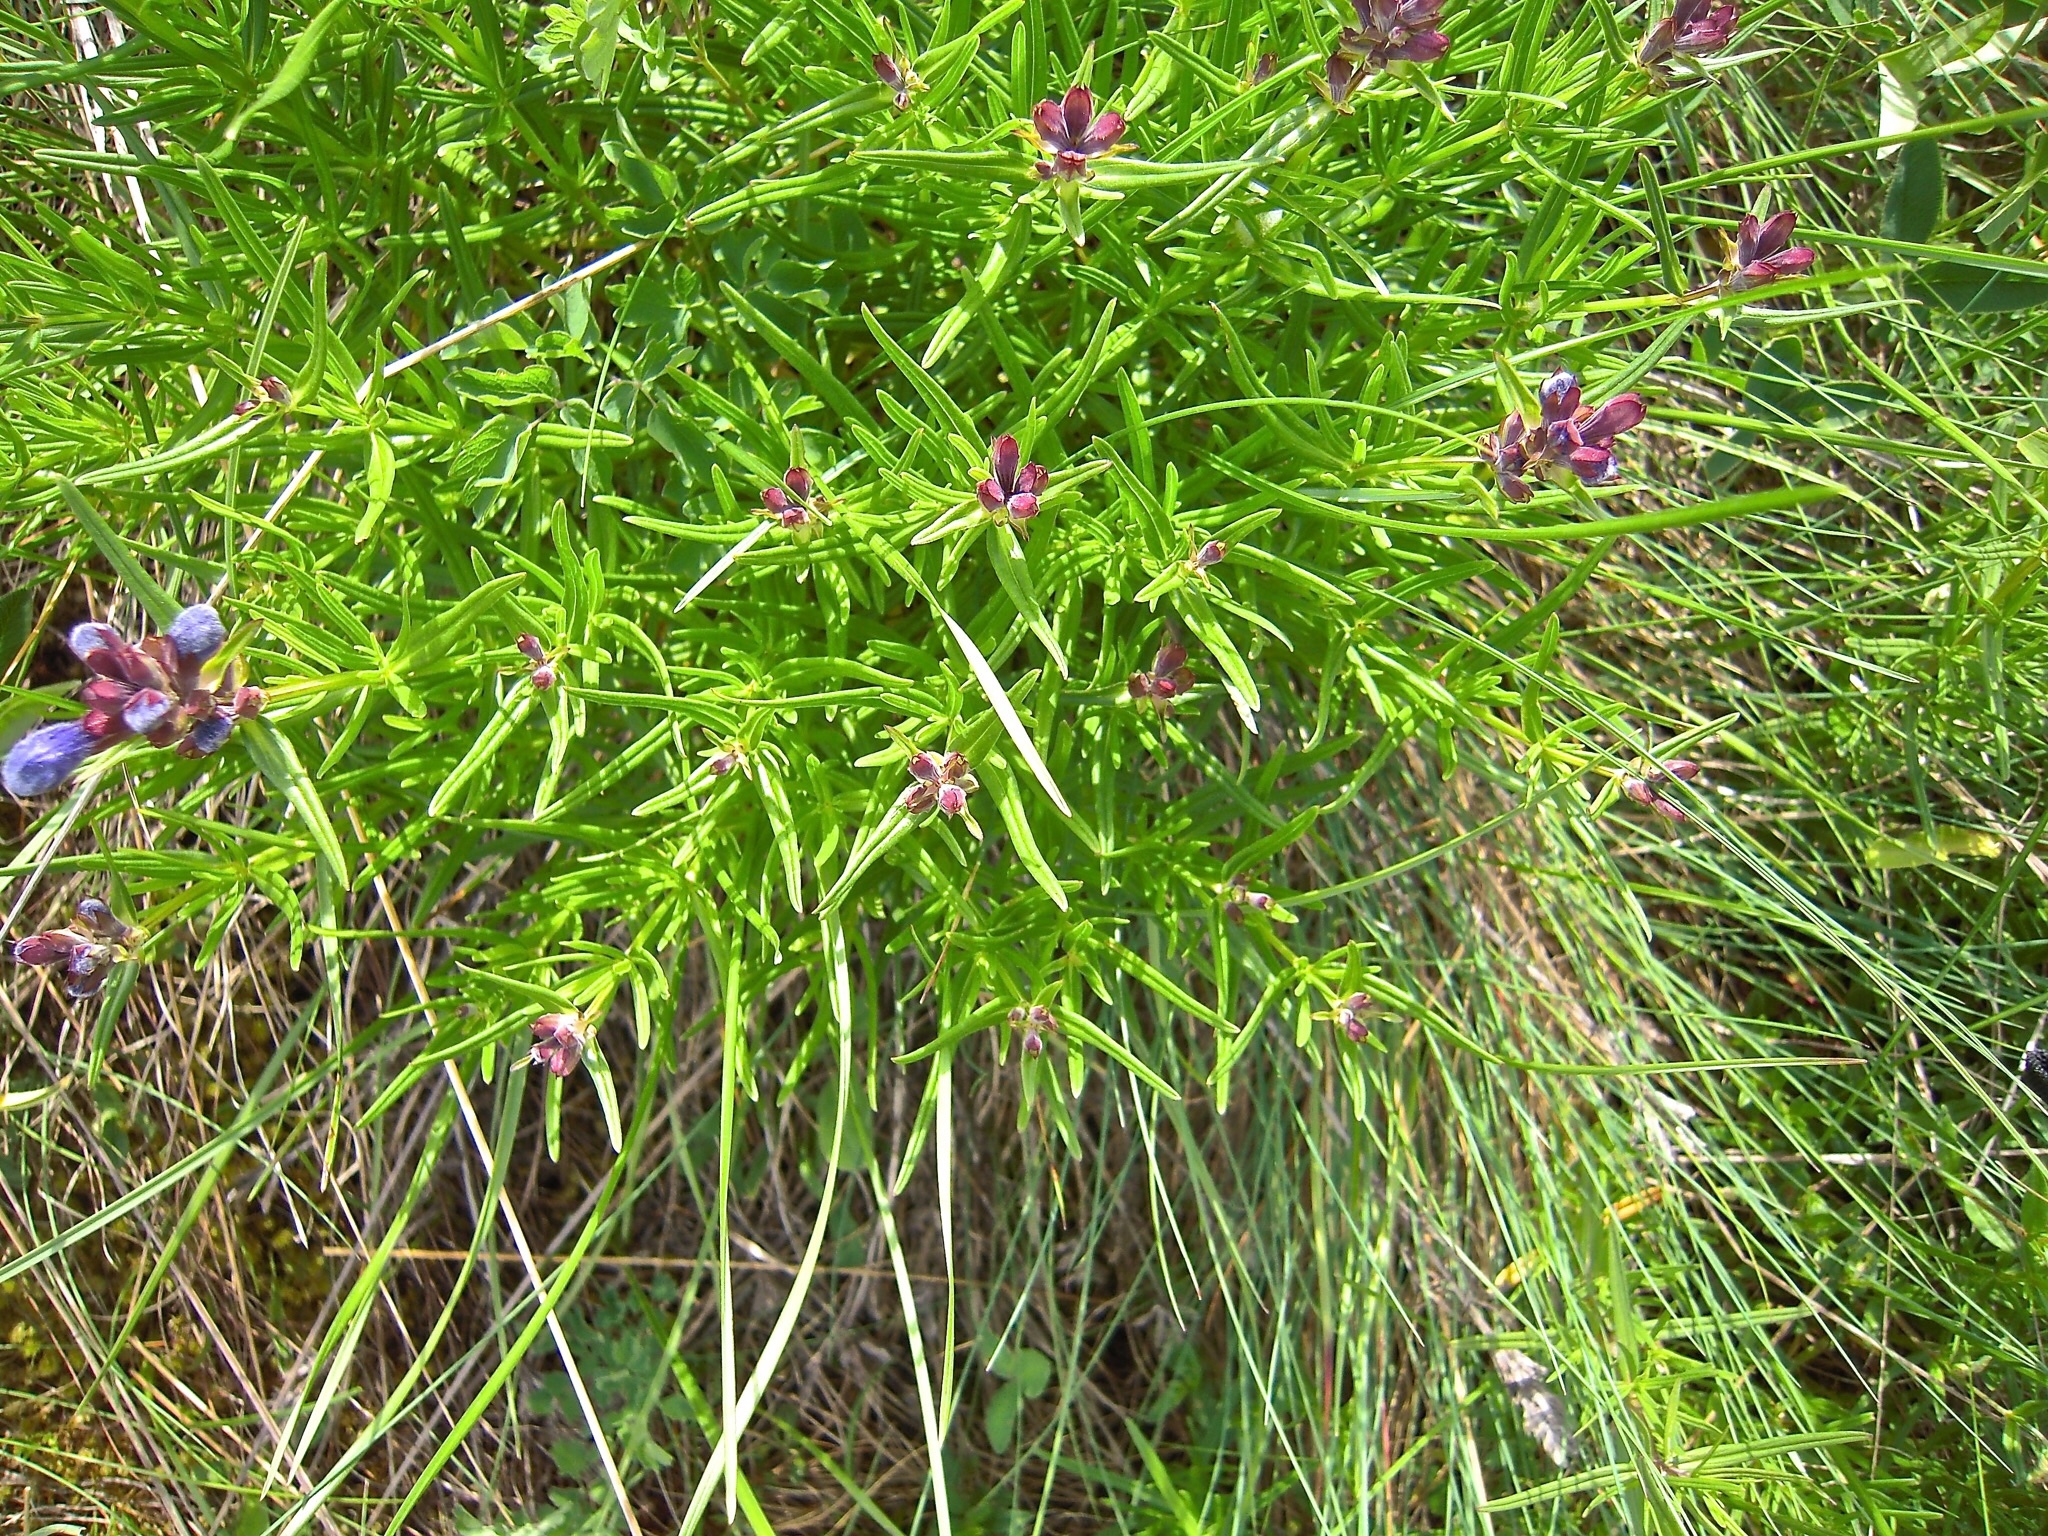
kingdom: Plantae
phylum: Tracheophyta
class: Magnoliopsida
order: Lamiales
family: Lamiaceae
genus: Dracocephalum
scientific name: Dracocephalum ruyschiana
